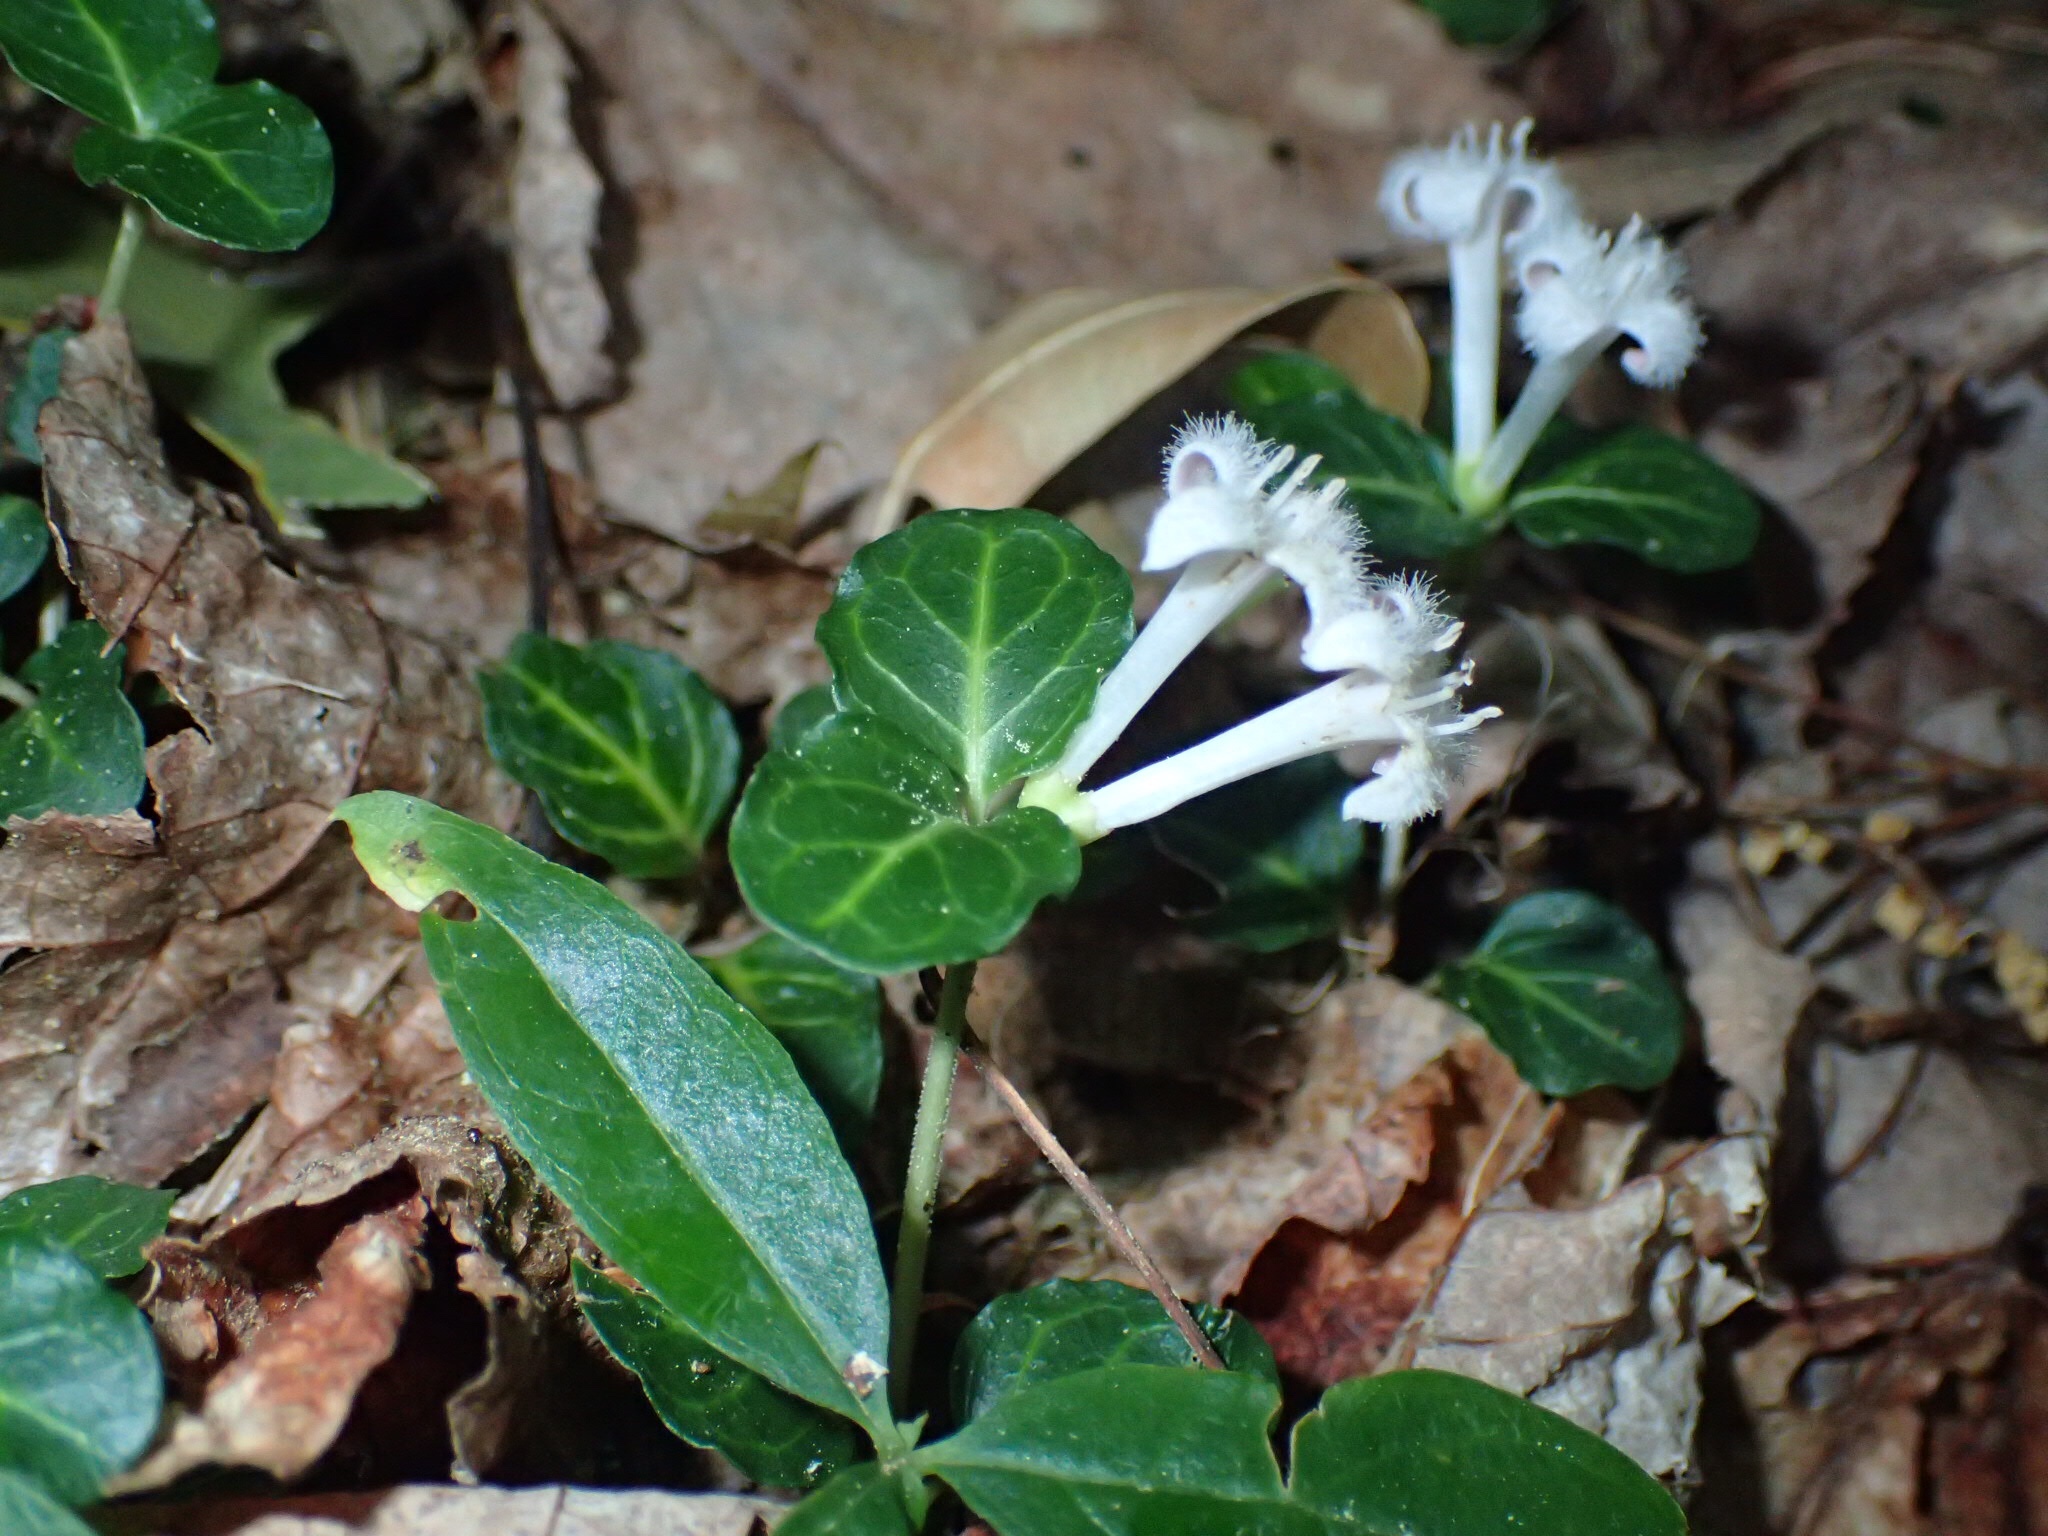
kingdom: Plantae
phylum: Tracheophyta
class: Magnoliopsida
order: Gentianales
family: Rubiaceae
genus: Mitchella
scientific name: Mitchella repens
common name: Partridge-berry
